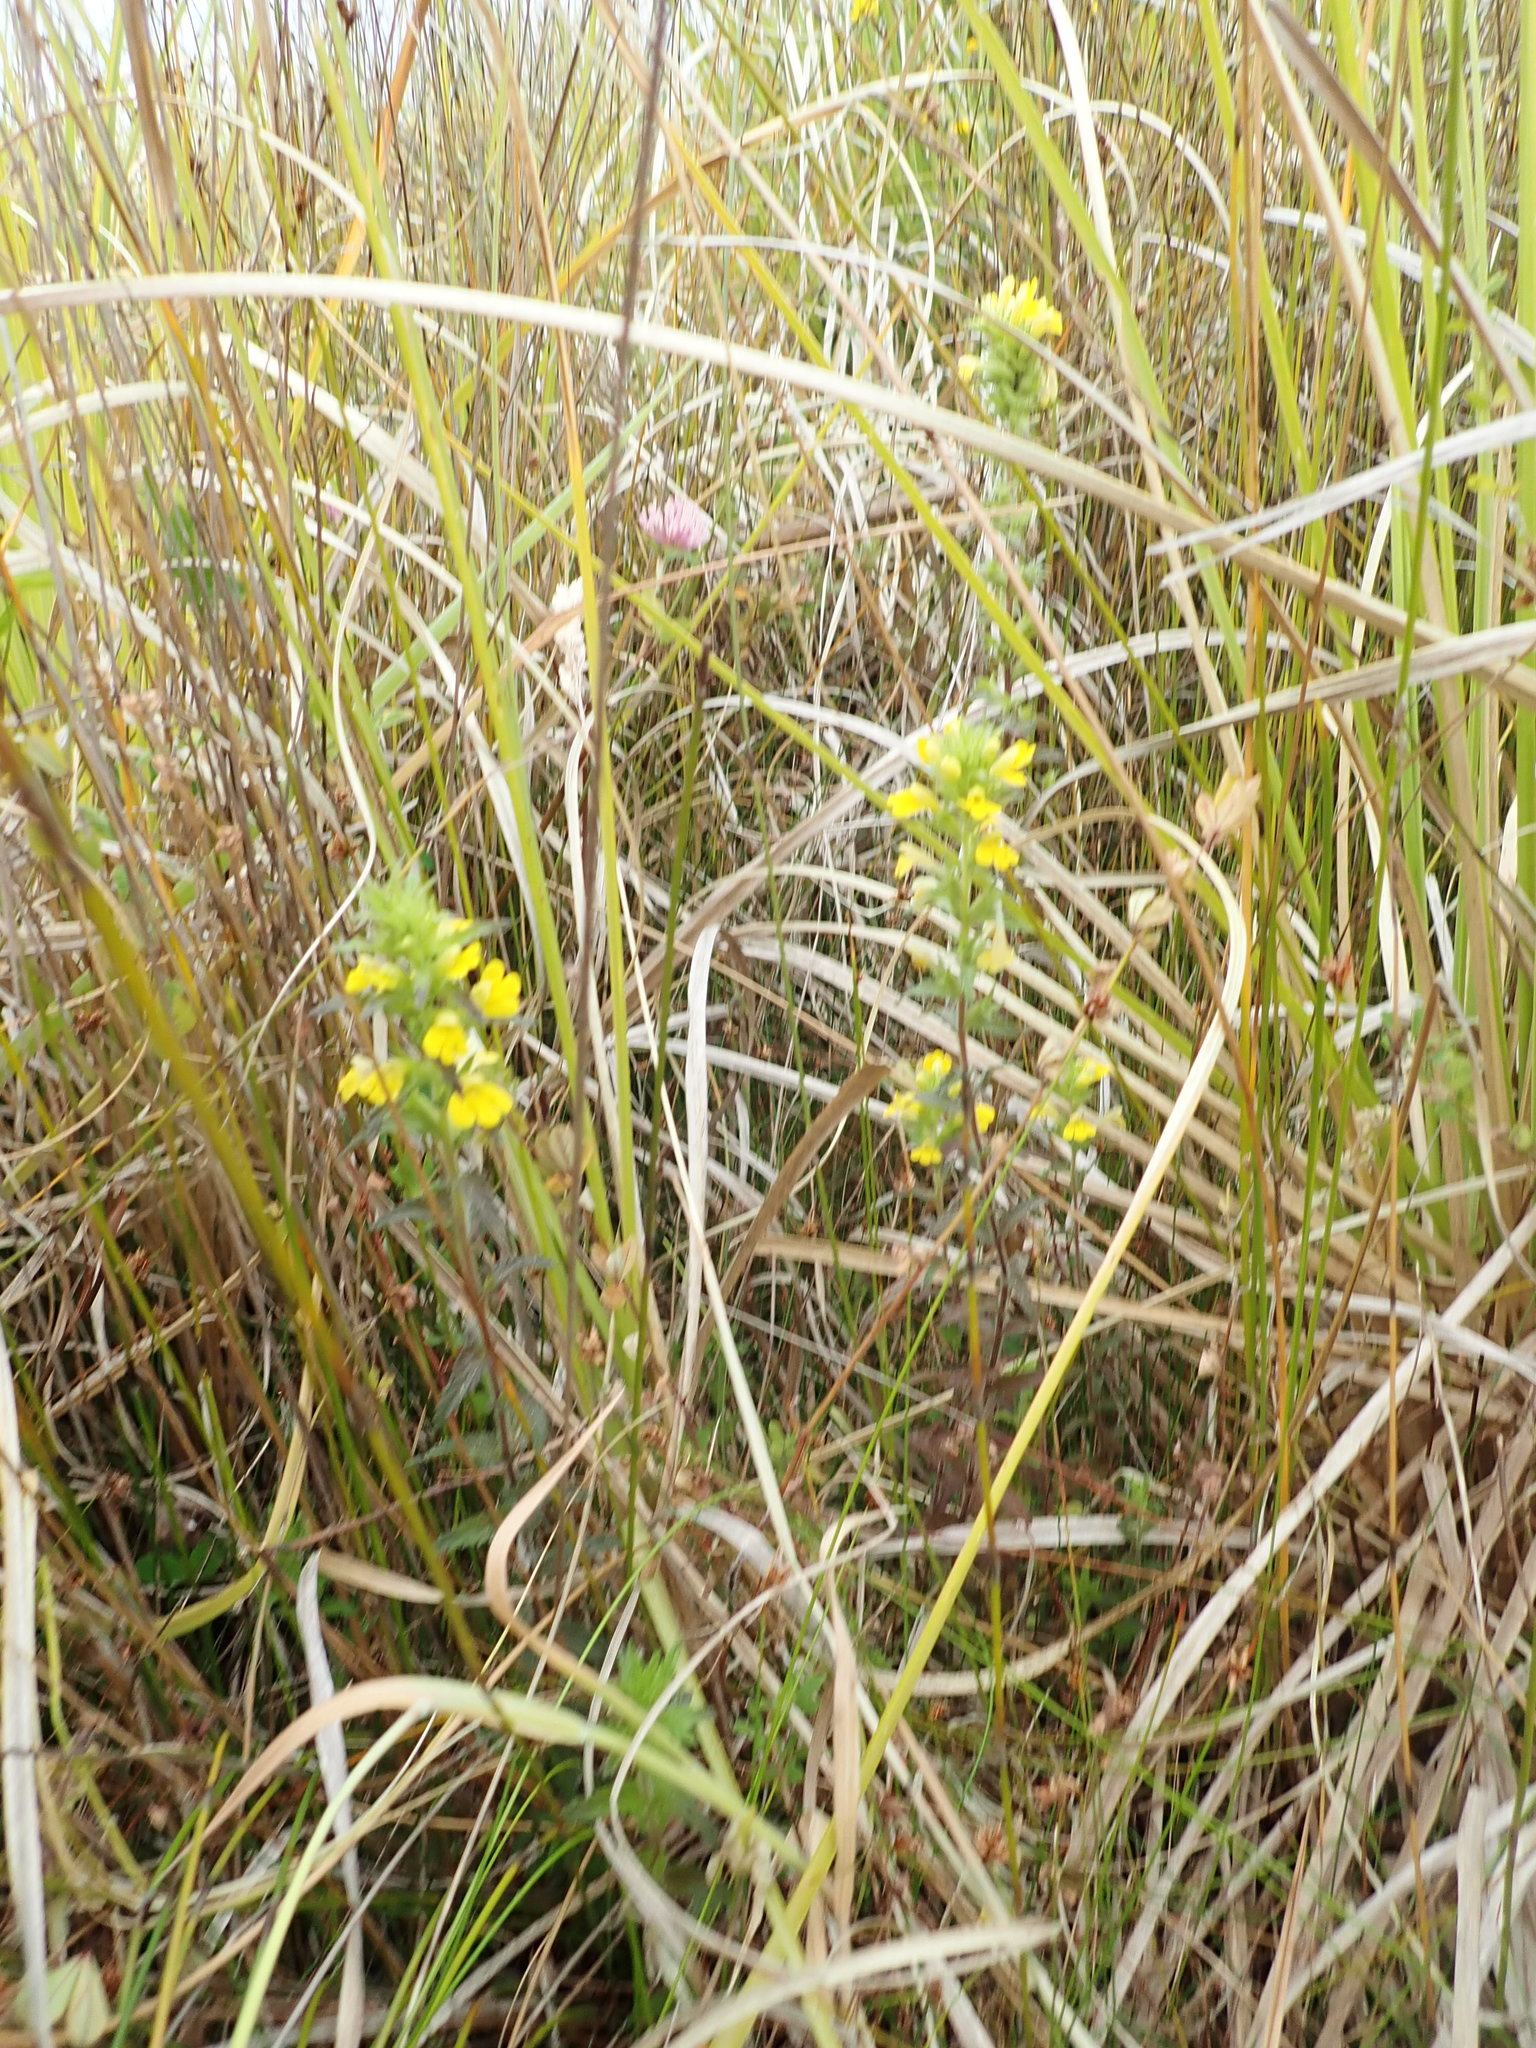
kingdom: Plantae
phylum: Tracheophyta
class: Magnoliopsida
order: Lamiales
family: Orobanchaceae
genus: Bellardia
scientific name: Bellardia viscosa
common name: Sticky parentucellia
